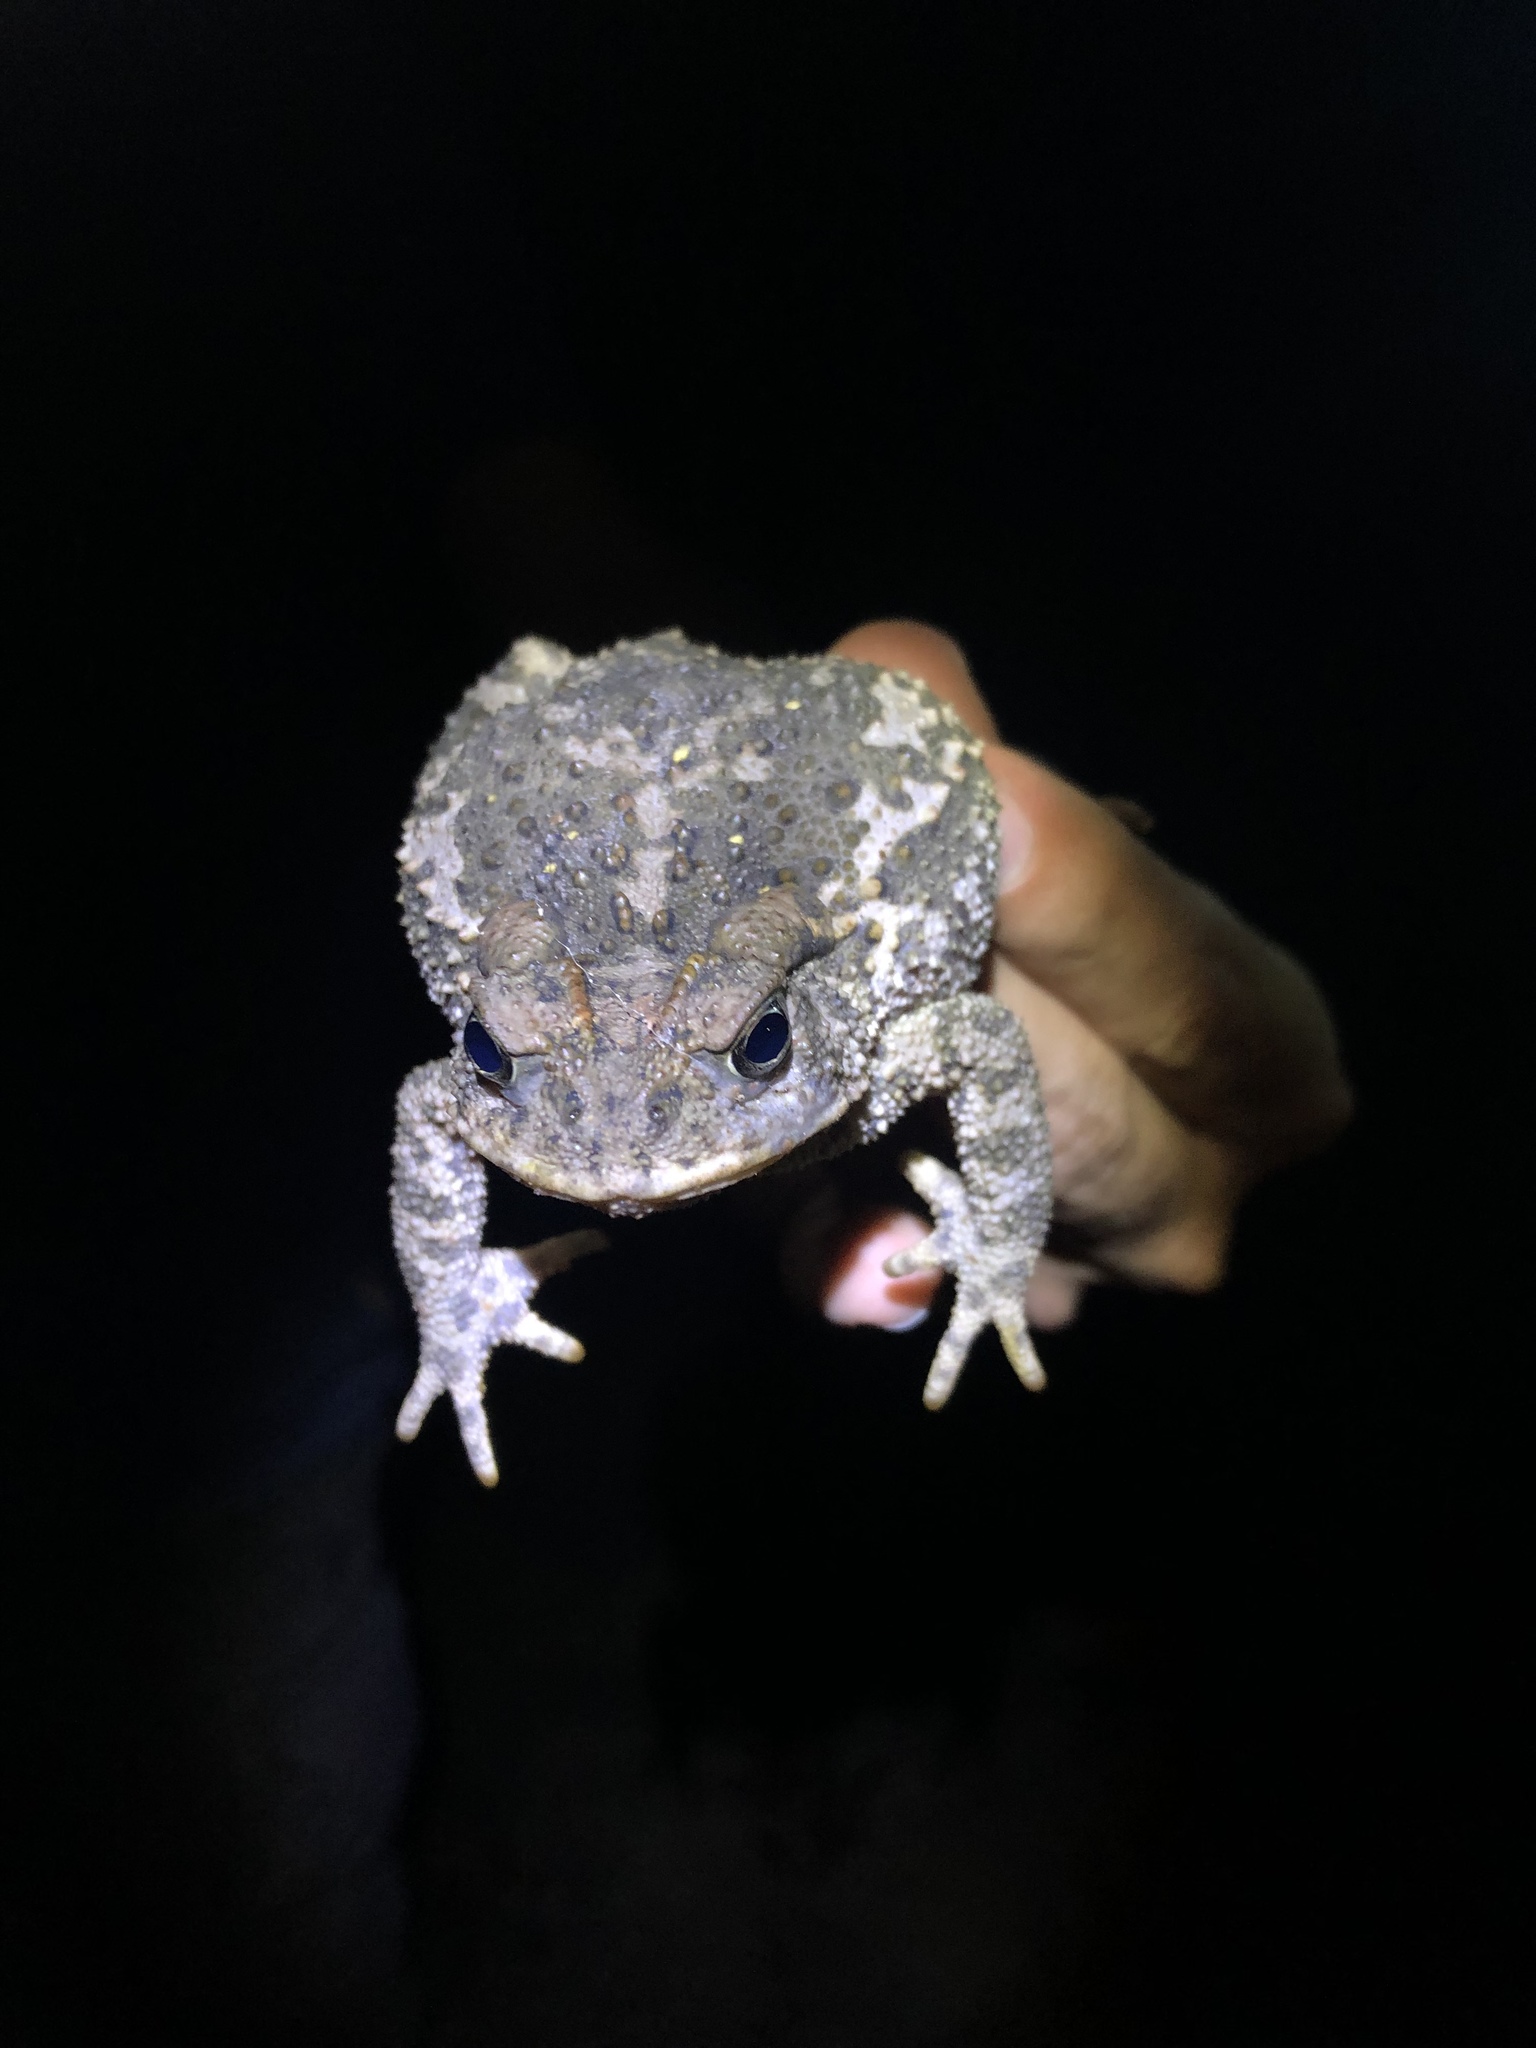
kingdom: Animalia
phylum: Chordata
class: Amphibia
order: Anura
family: Bufonidae
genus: Incilius
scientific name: Incilius occidentalis
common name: Pine toad
